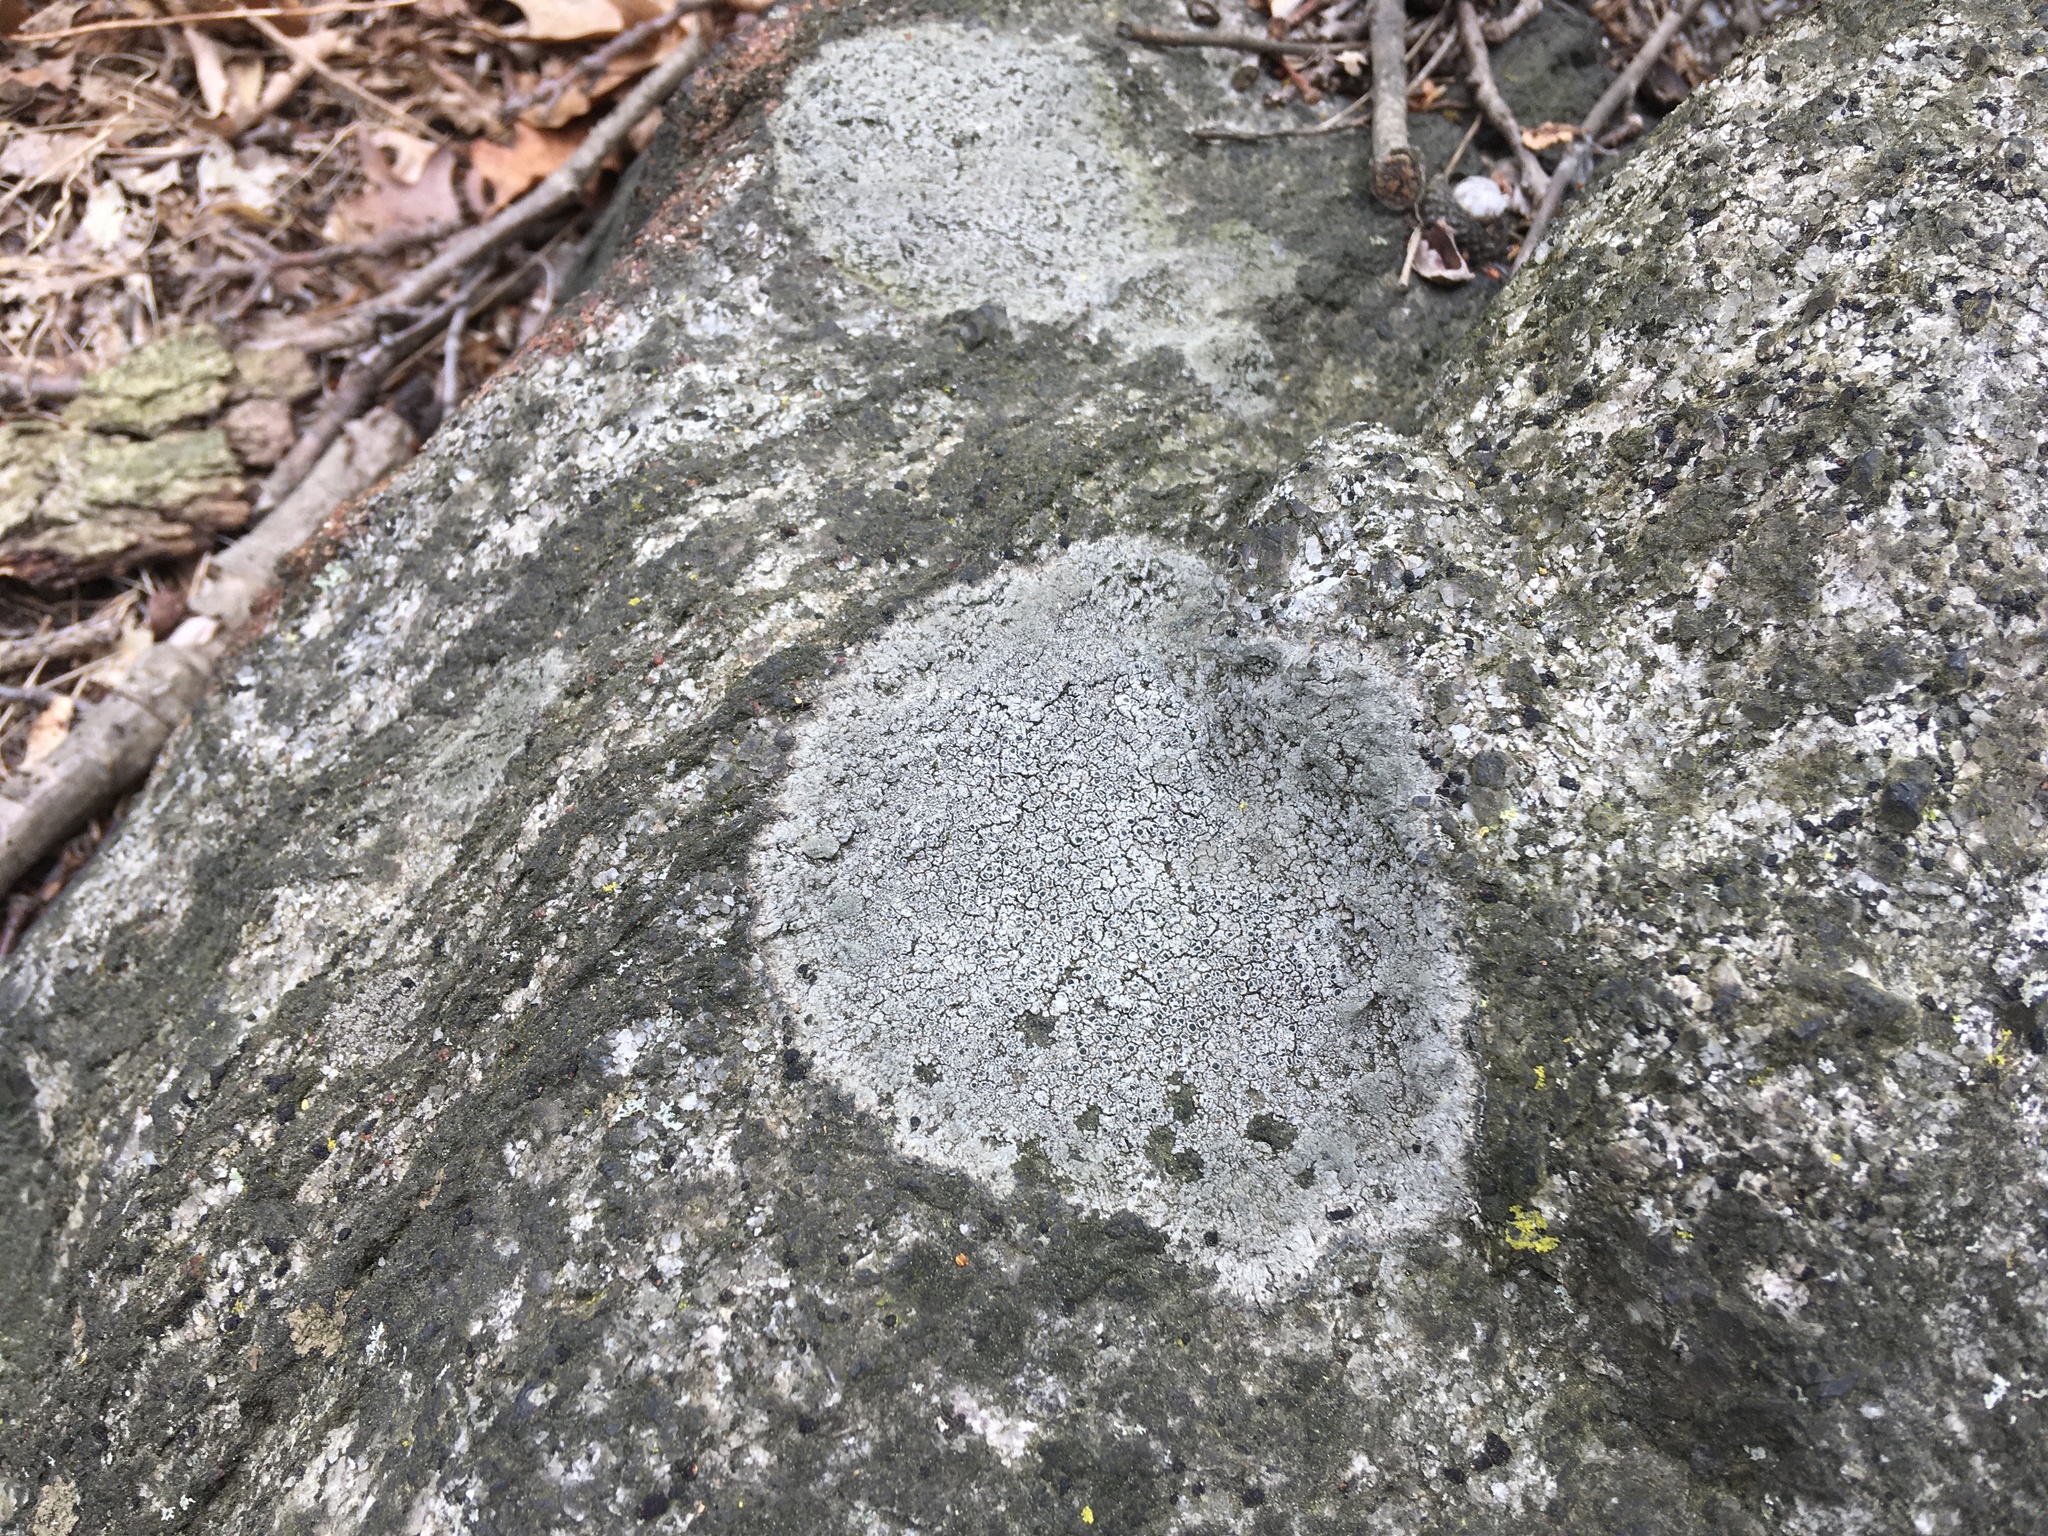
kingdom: Fungi
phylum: Ascomycota
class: Lecanoromycetes
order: Lecideales
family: Lecideaceae
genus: Porpidia
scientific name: Porpidia albocaerulescens
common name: Smokey-eyed boulder lichen
